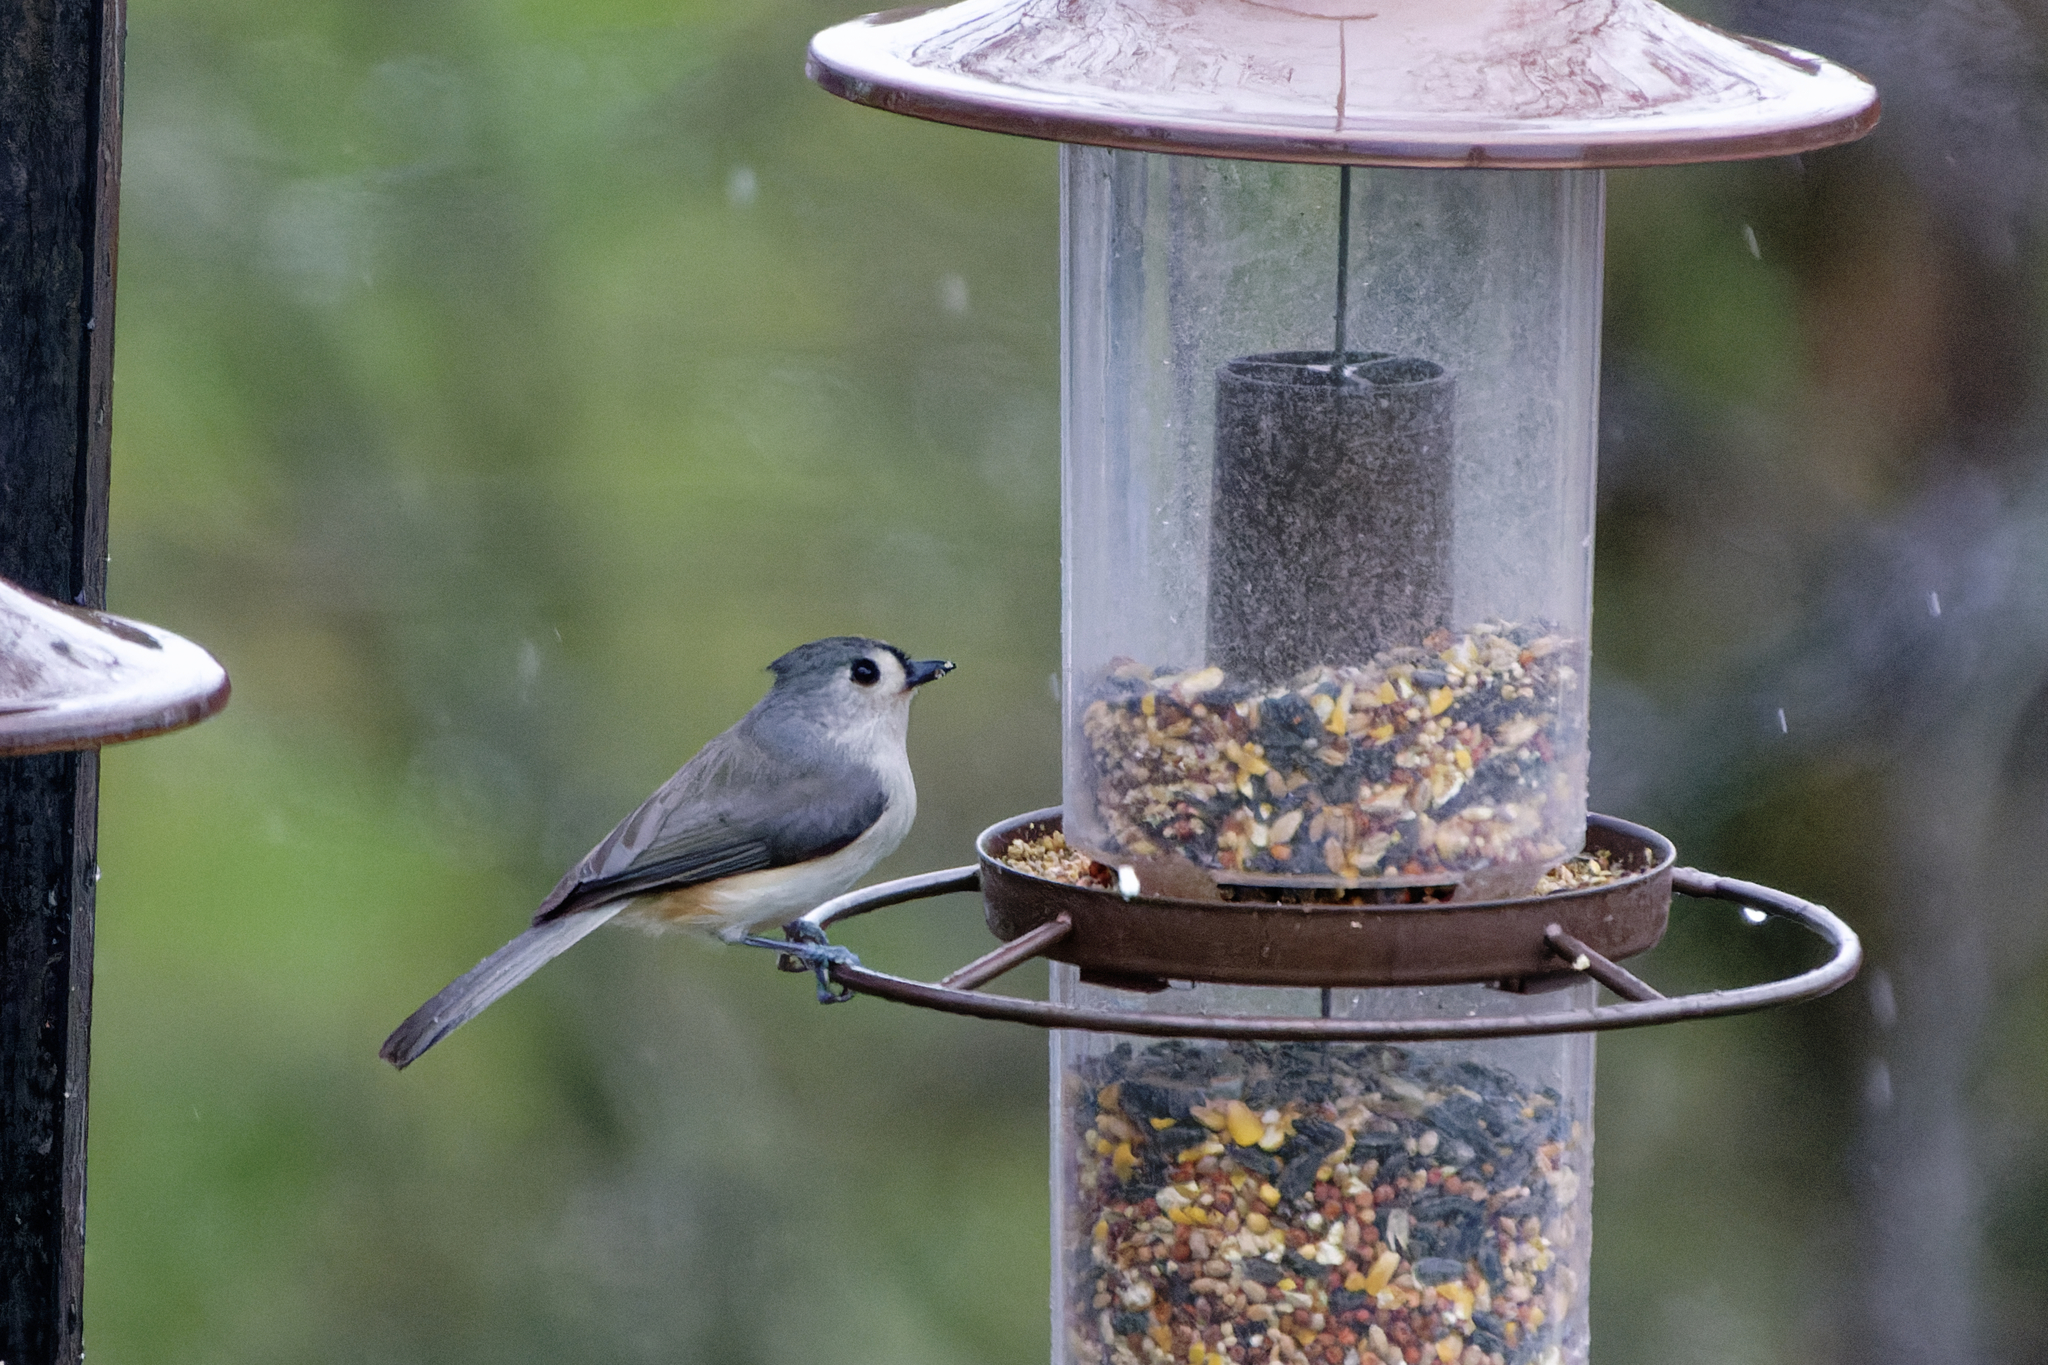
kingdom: Animalia
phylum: Chordata
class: Aves
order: Passeriformes
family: Paridae
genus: Baeolophus
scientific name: Baeolophus bicolor
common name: Tufted titmouse
